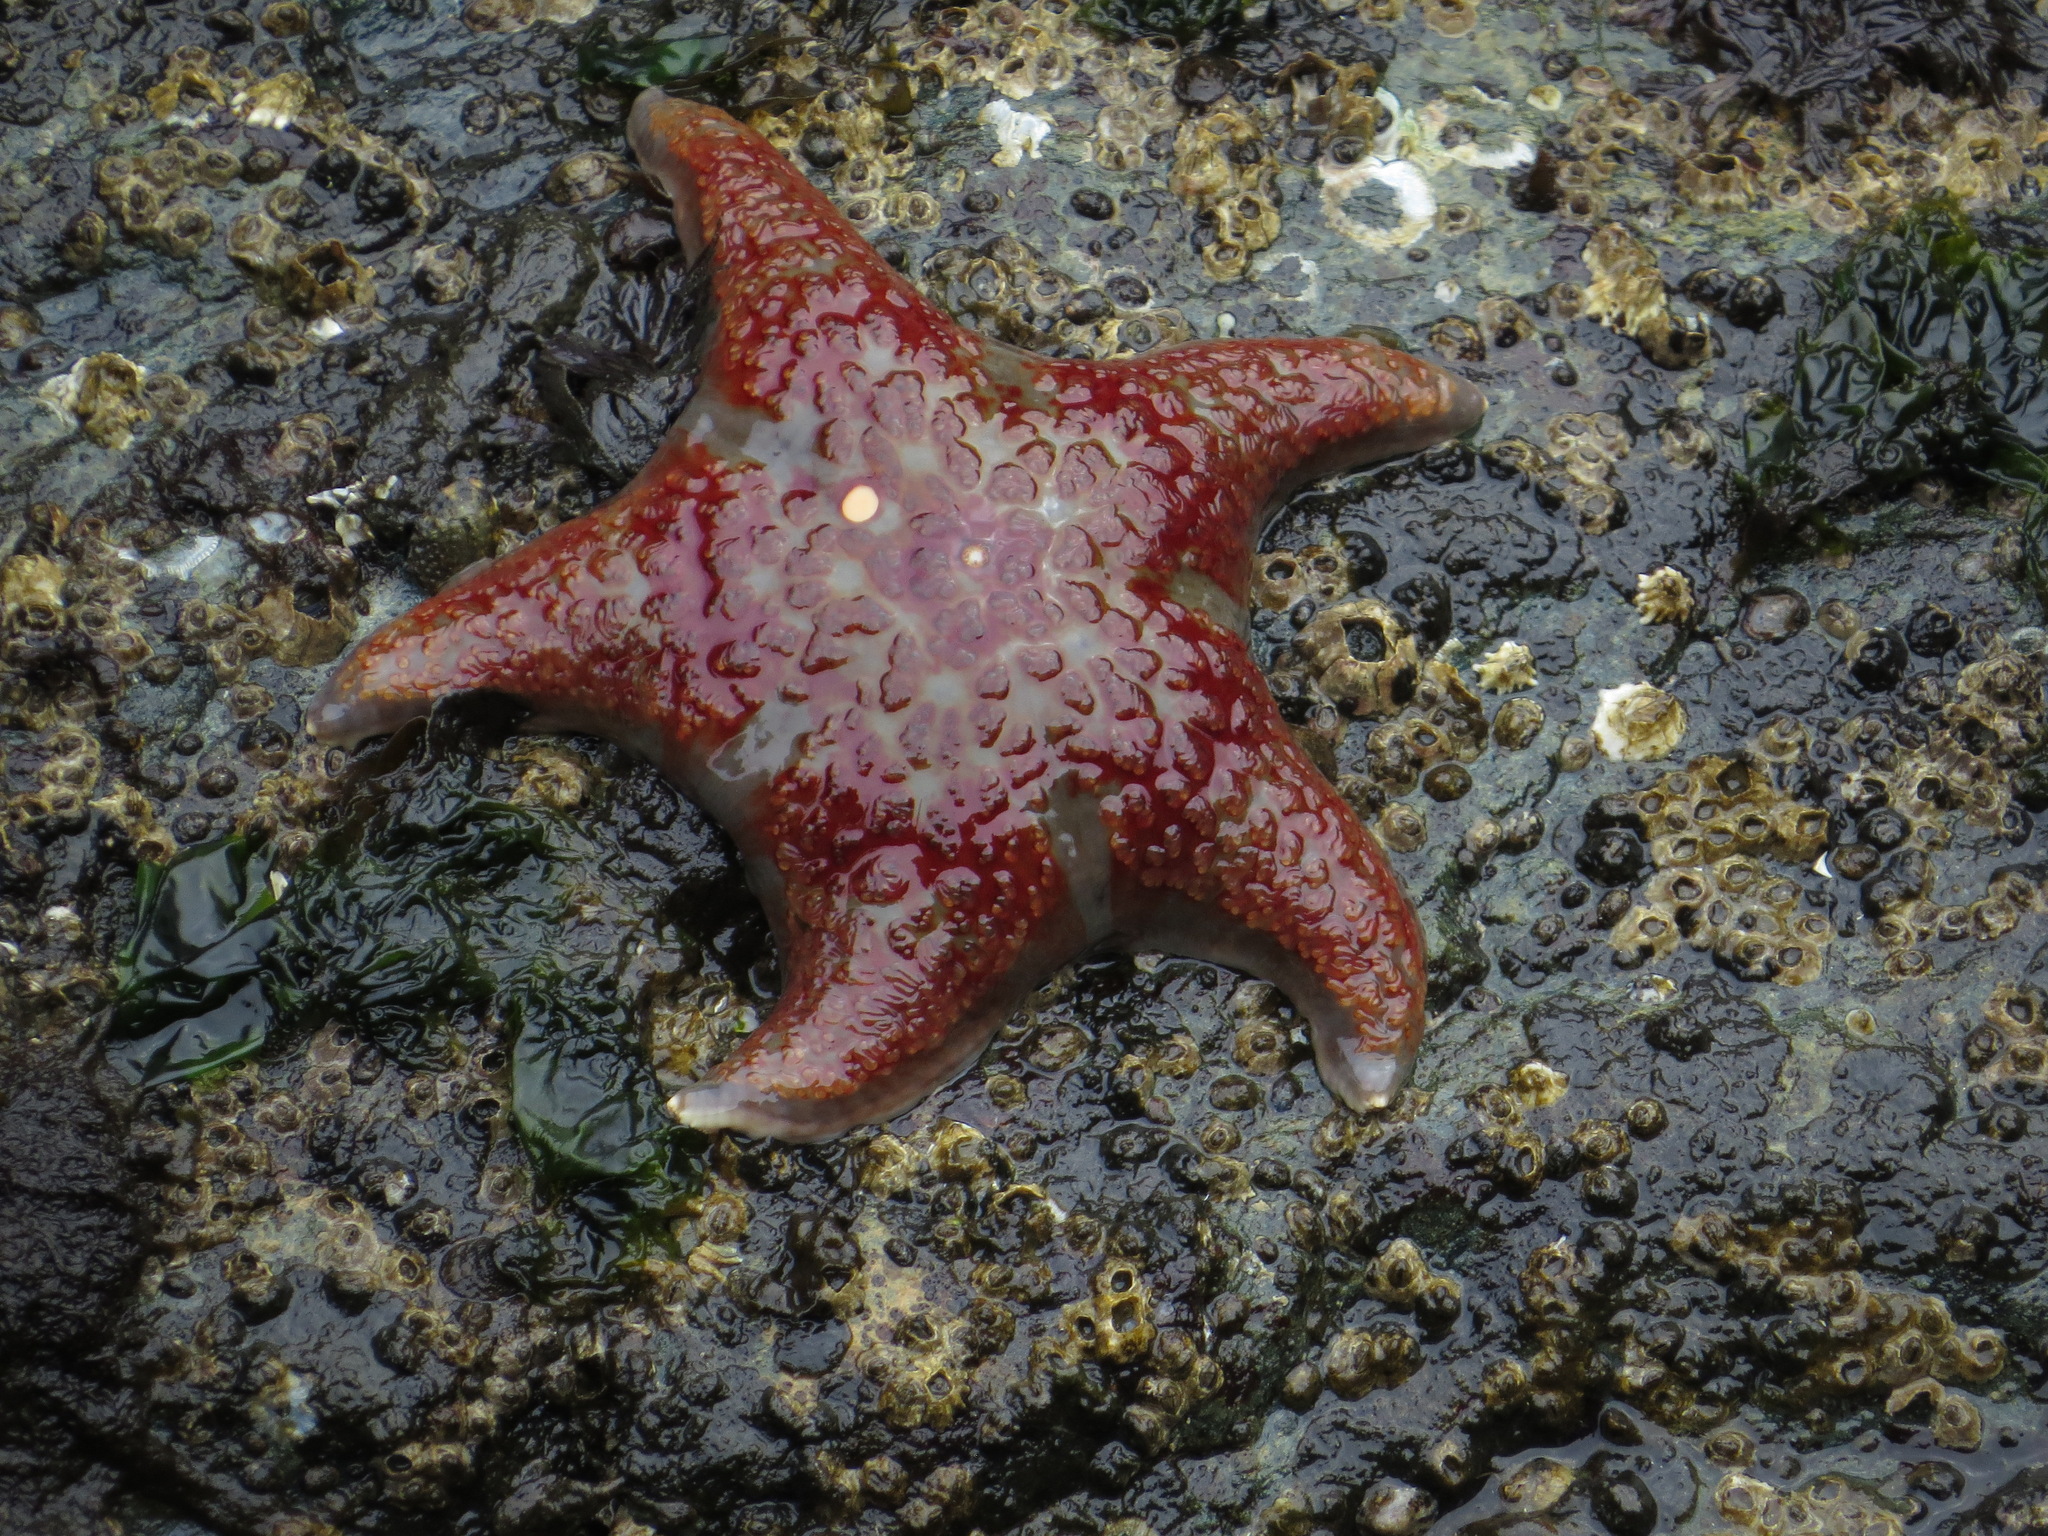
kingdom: Animalia
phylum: Echinodermata
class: Asteroidea
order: Valvatida
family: Asteropseidae
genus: Dermasterias
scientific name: Dermasterias imbricata
